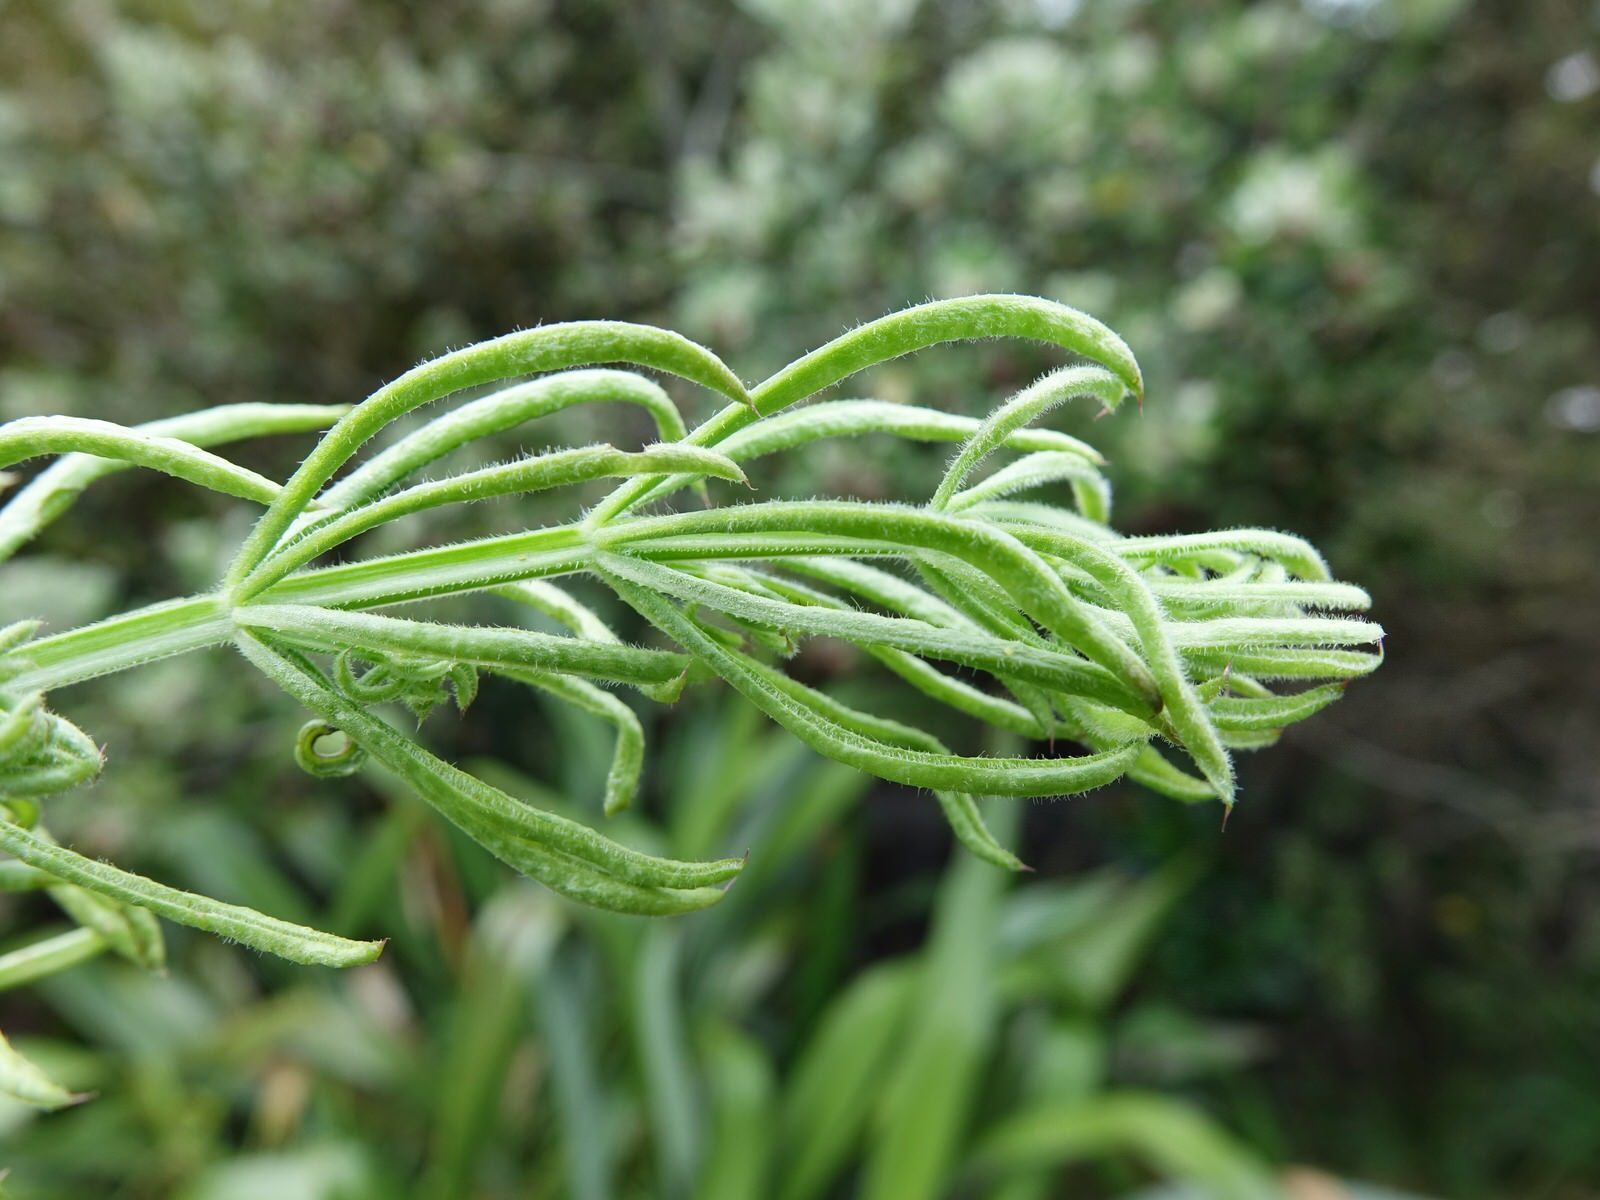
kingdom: Plantae
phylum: Tracheophyta
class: Magnoliopsida
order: Gentianales
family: Rubiaceae
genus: Galium
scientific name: Galium aparine
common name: Cleavers
